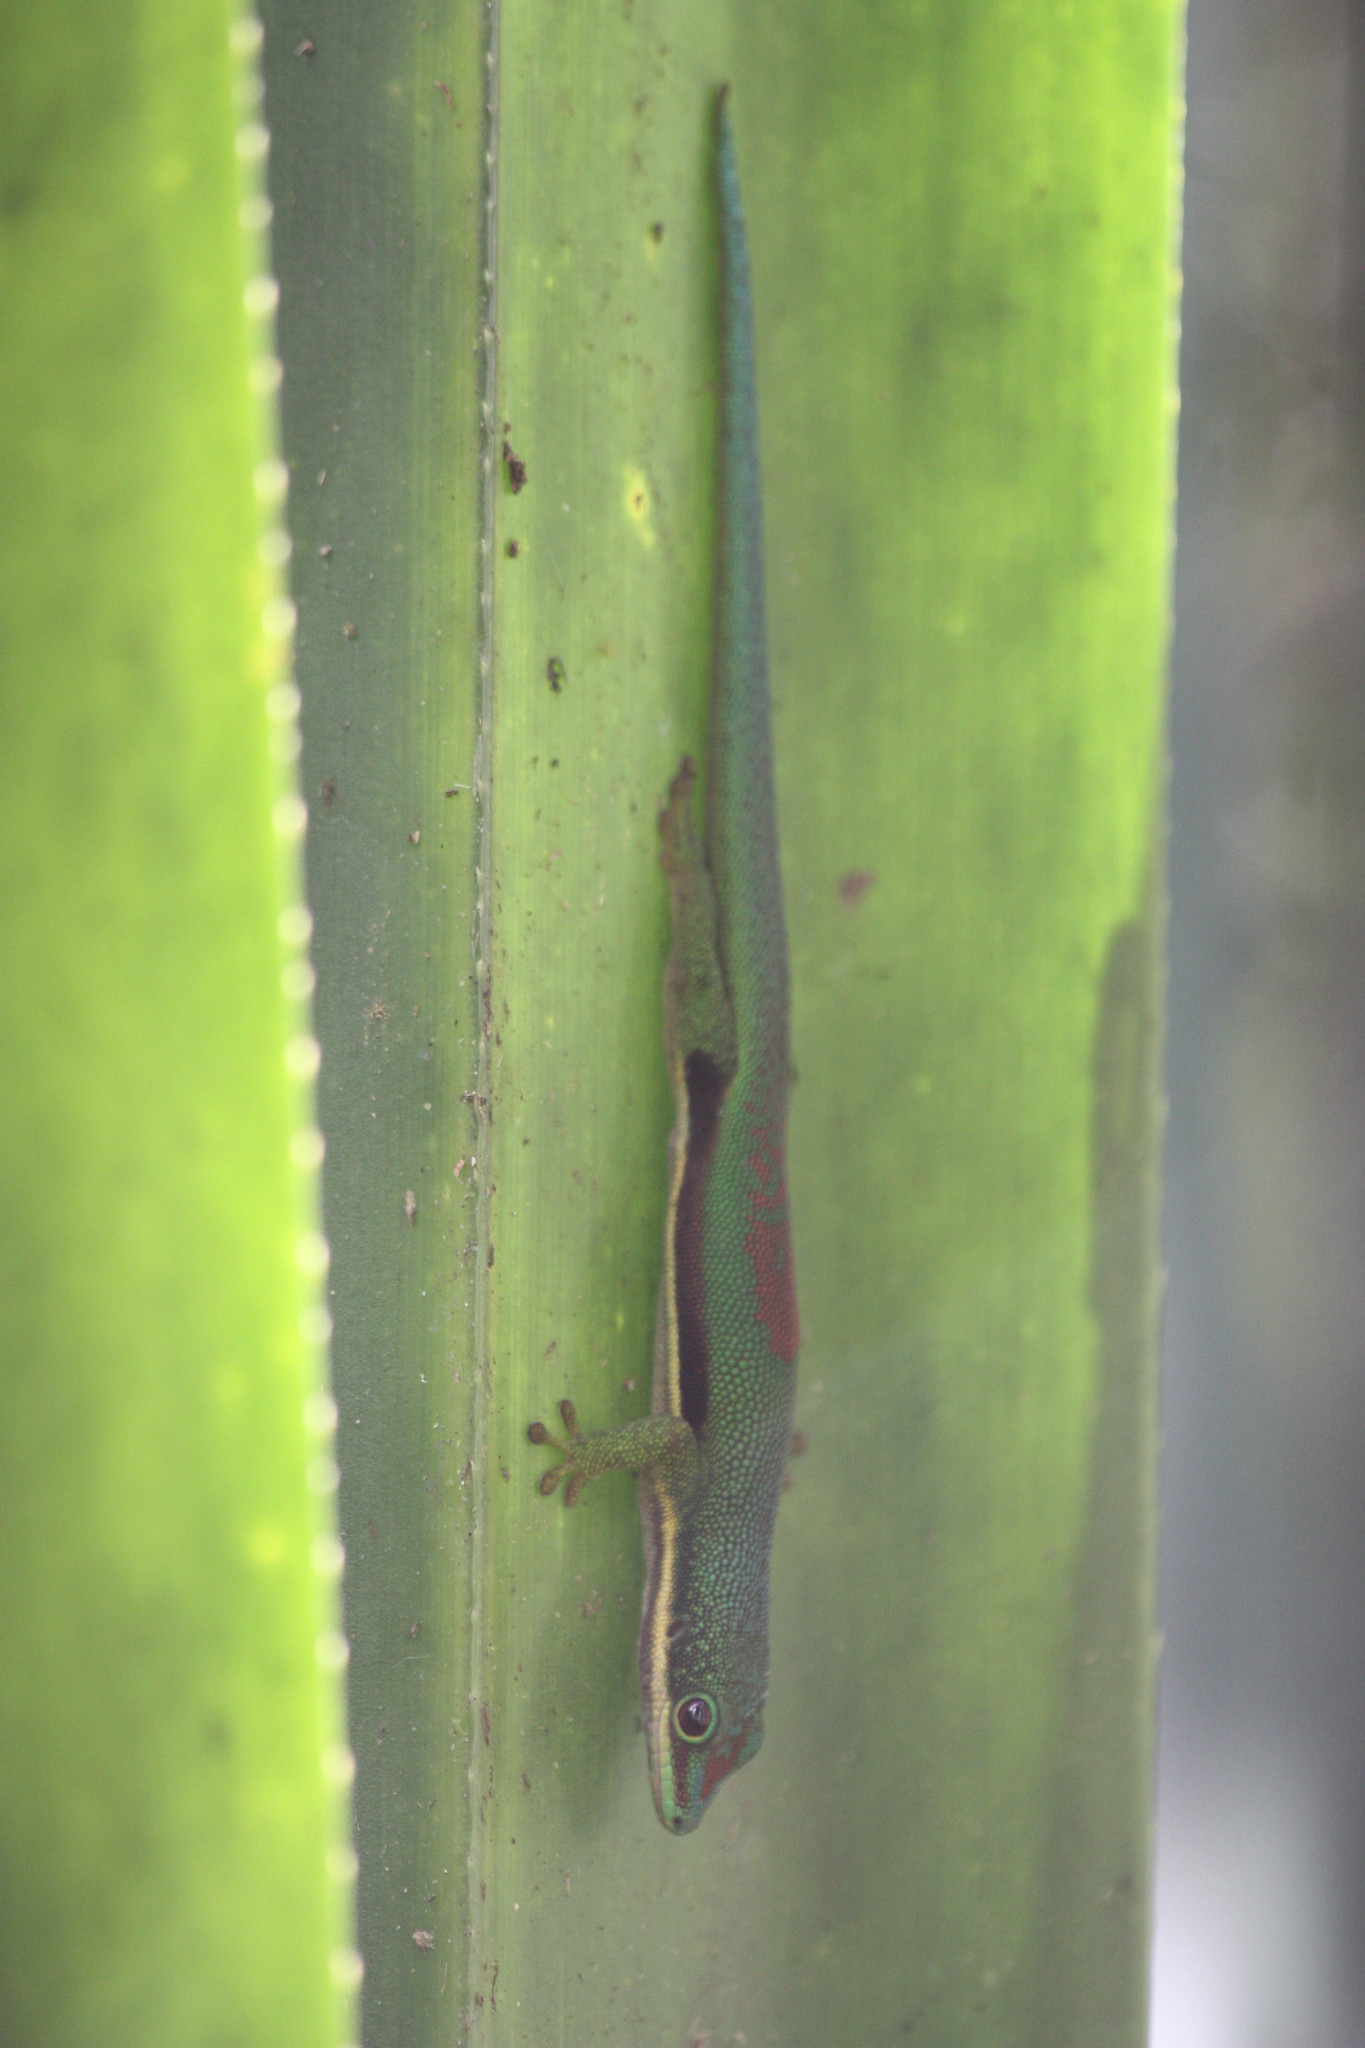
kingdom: Animalia
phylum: Chordata
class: Squamata
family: Gekkonidae
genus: Phelsuma
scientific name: Phelsuma lineata
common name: Lined day gecko
